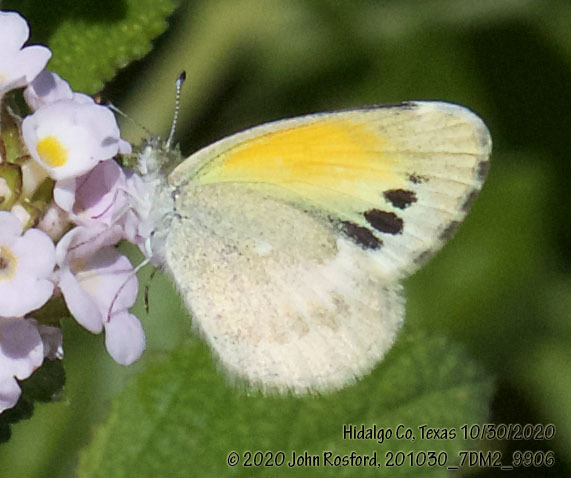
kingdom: Animalia
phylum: Arthropoda
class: Insecta
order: Lepidoptera
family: Pieridae
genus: Nathalis
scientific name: Nathalis iole
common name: Dainty sulphur
